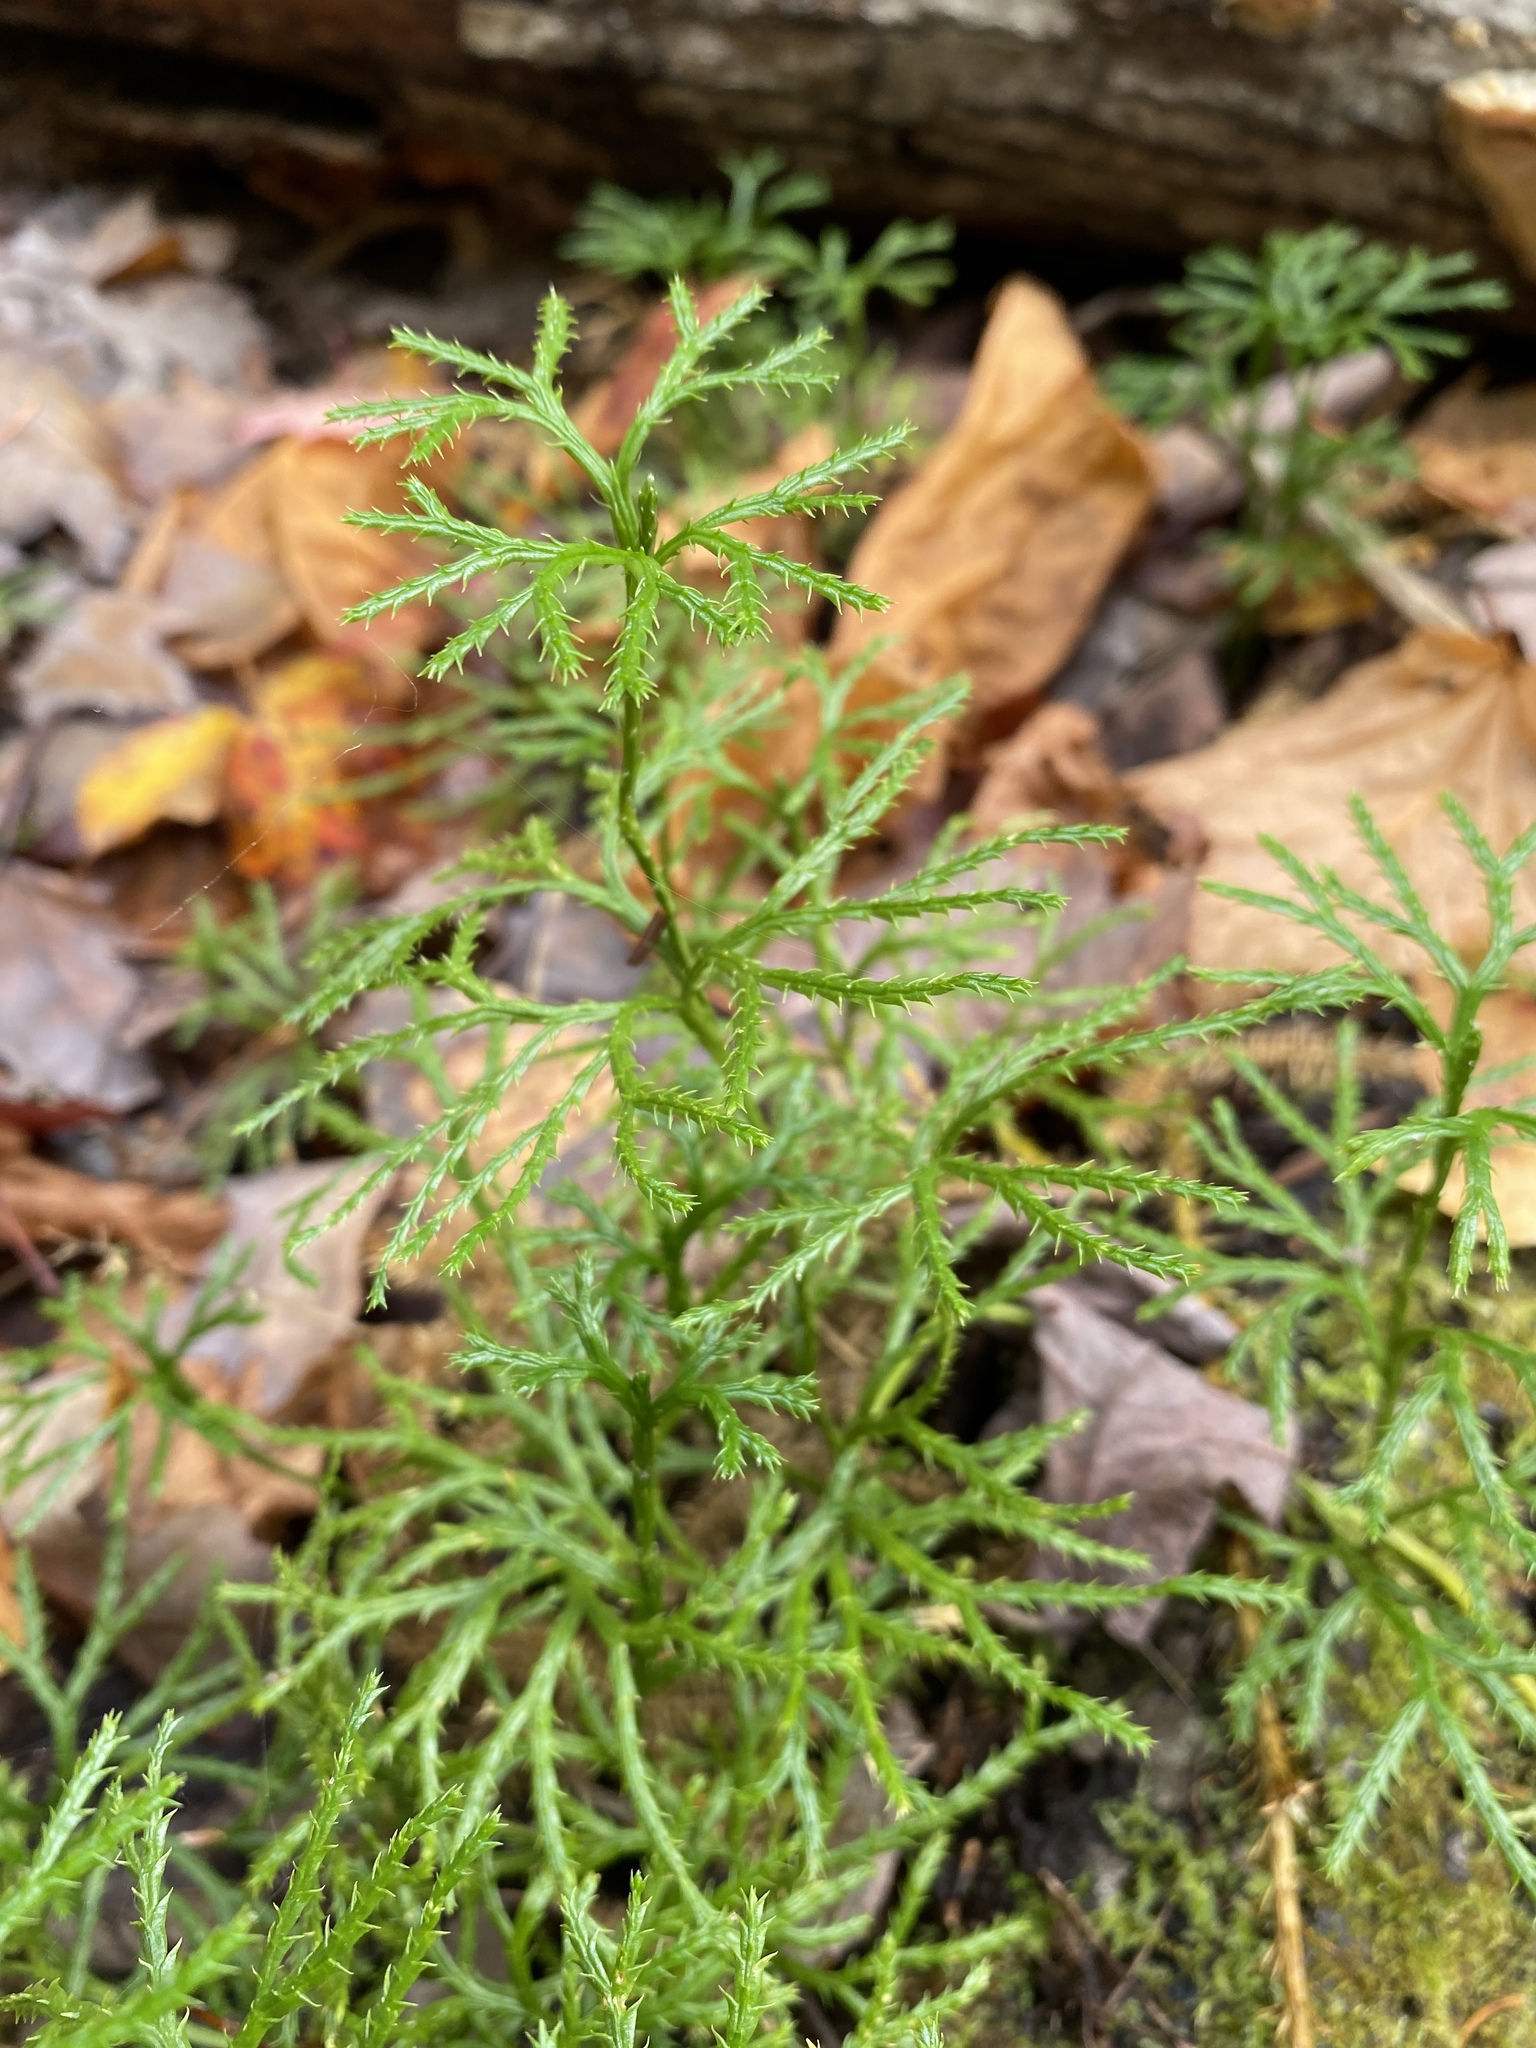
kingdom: Plantae
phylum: Tracheophyta
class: Lycopodiopsida
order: Lycopodiales
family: Lycopodiaceae
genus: Diphasiastrum
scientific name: Diphasiastrum complanatum
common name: Northern running-pine
